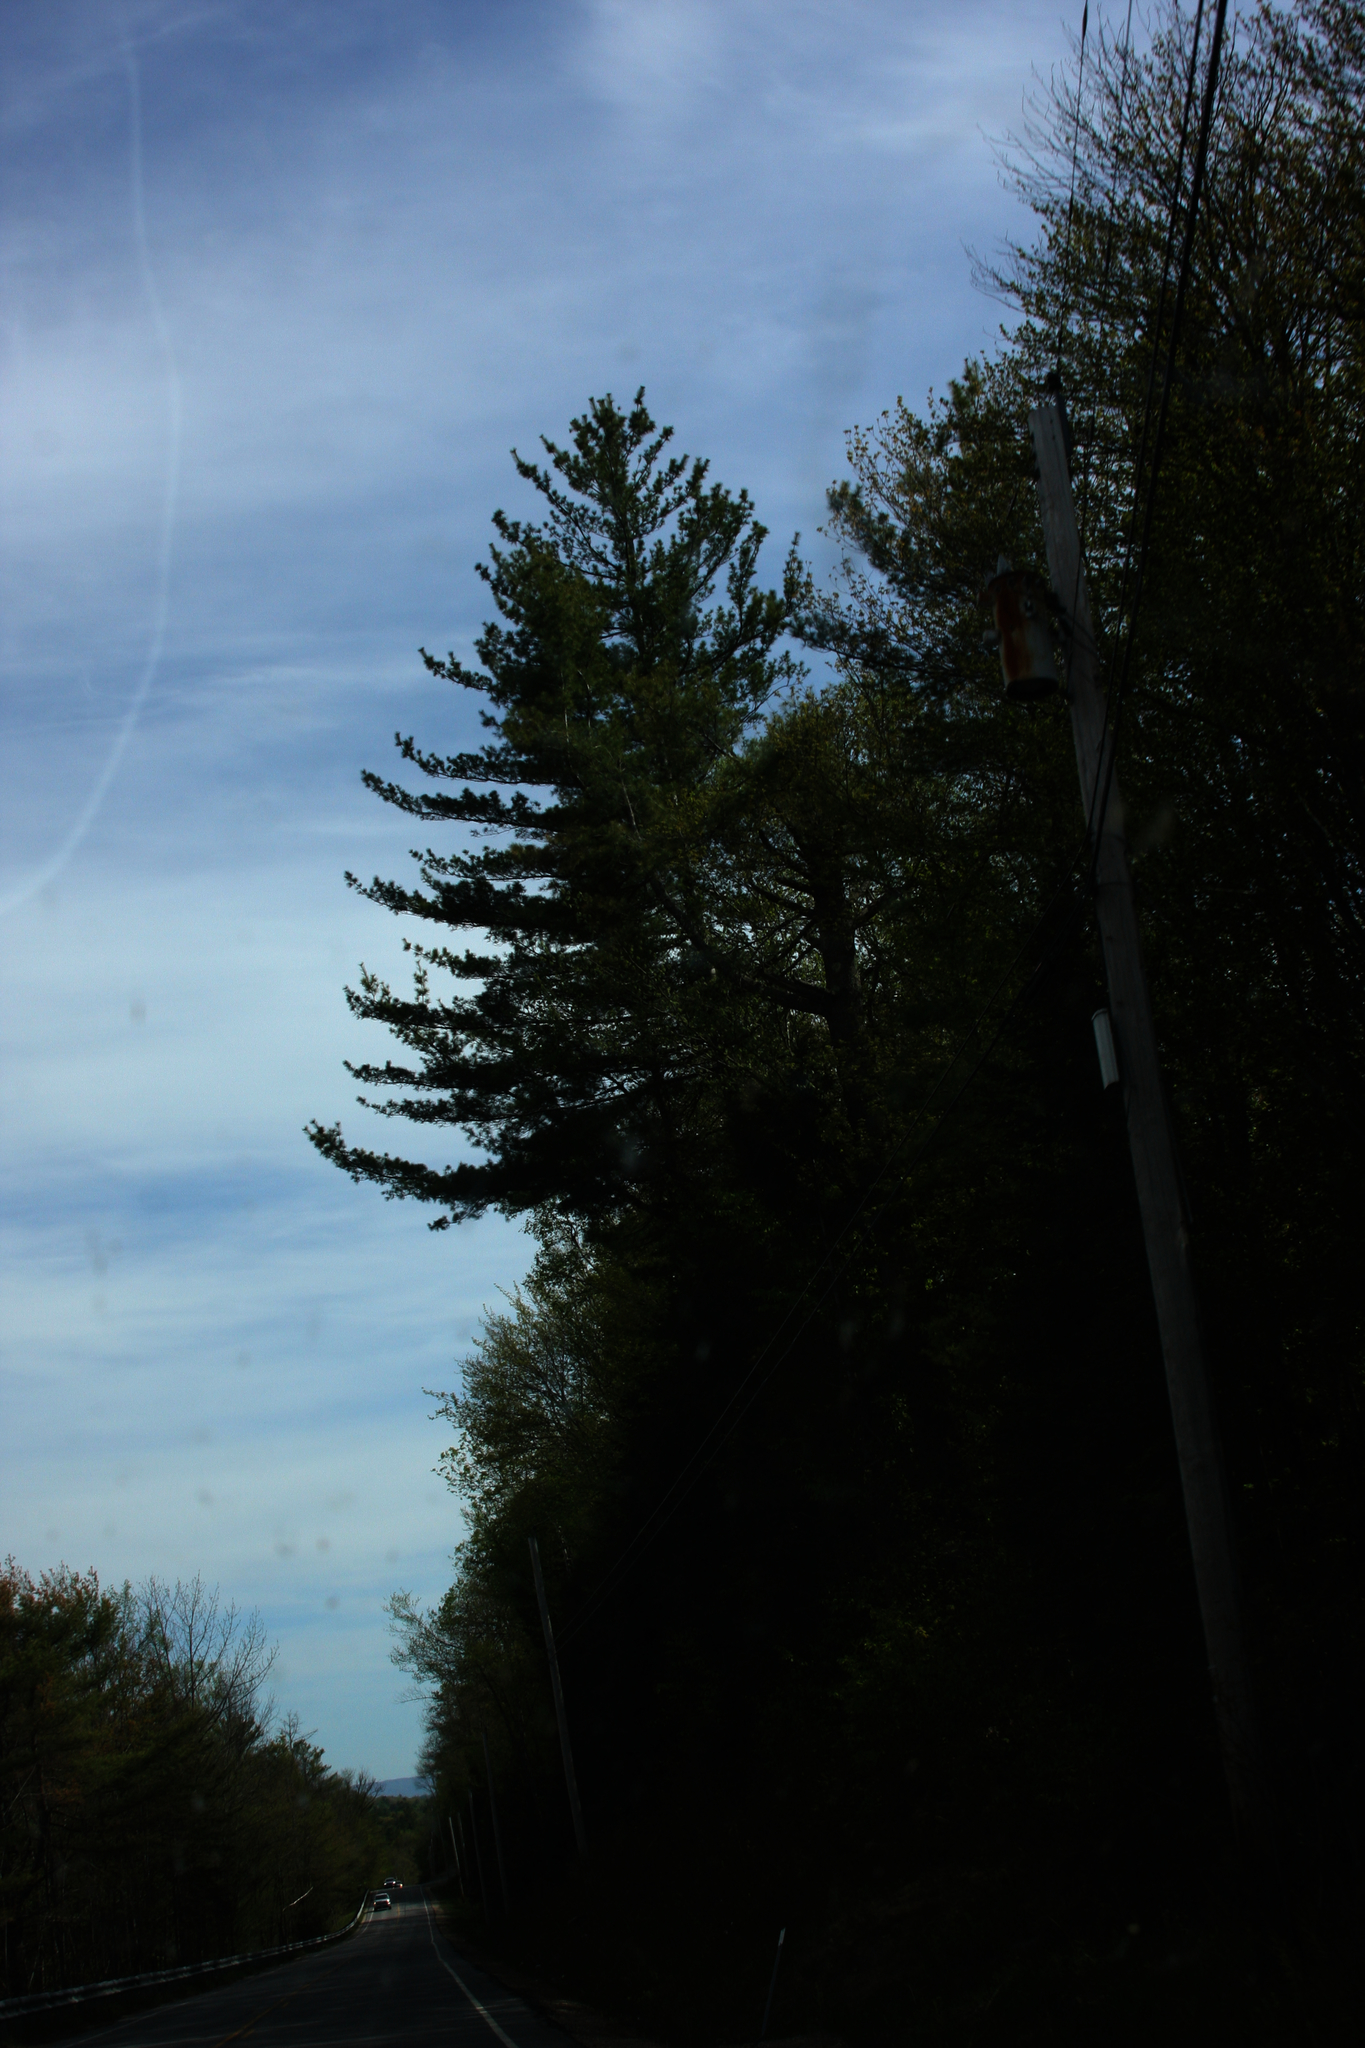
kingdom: Plantae
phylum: Tracheophyta
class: Pinopsida
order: Pinales
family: Pinaceae
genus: Pinus
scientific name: Pinus strobus
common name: Weymouth pine
